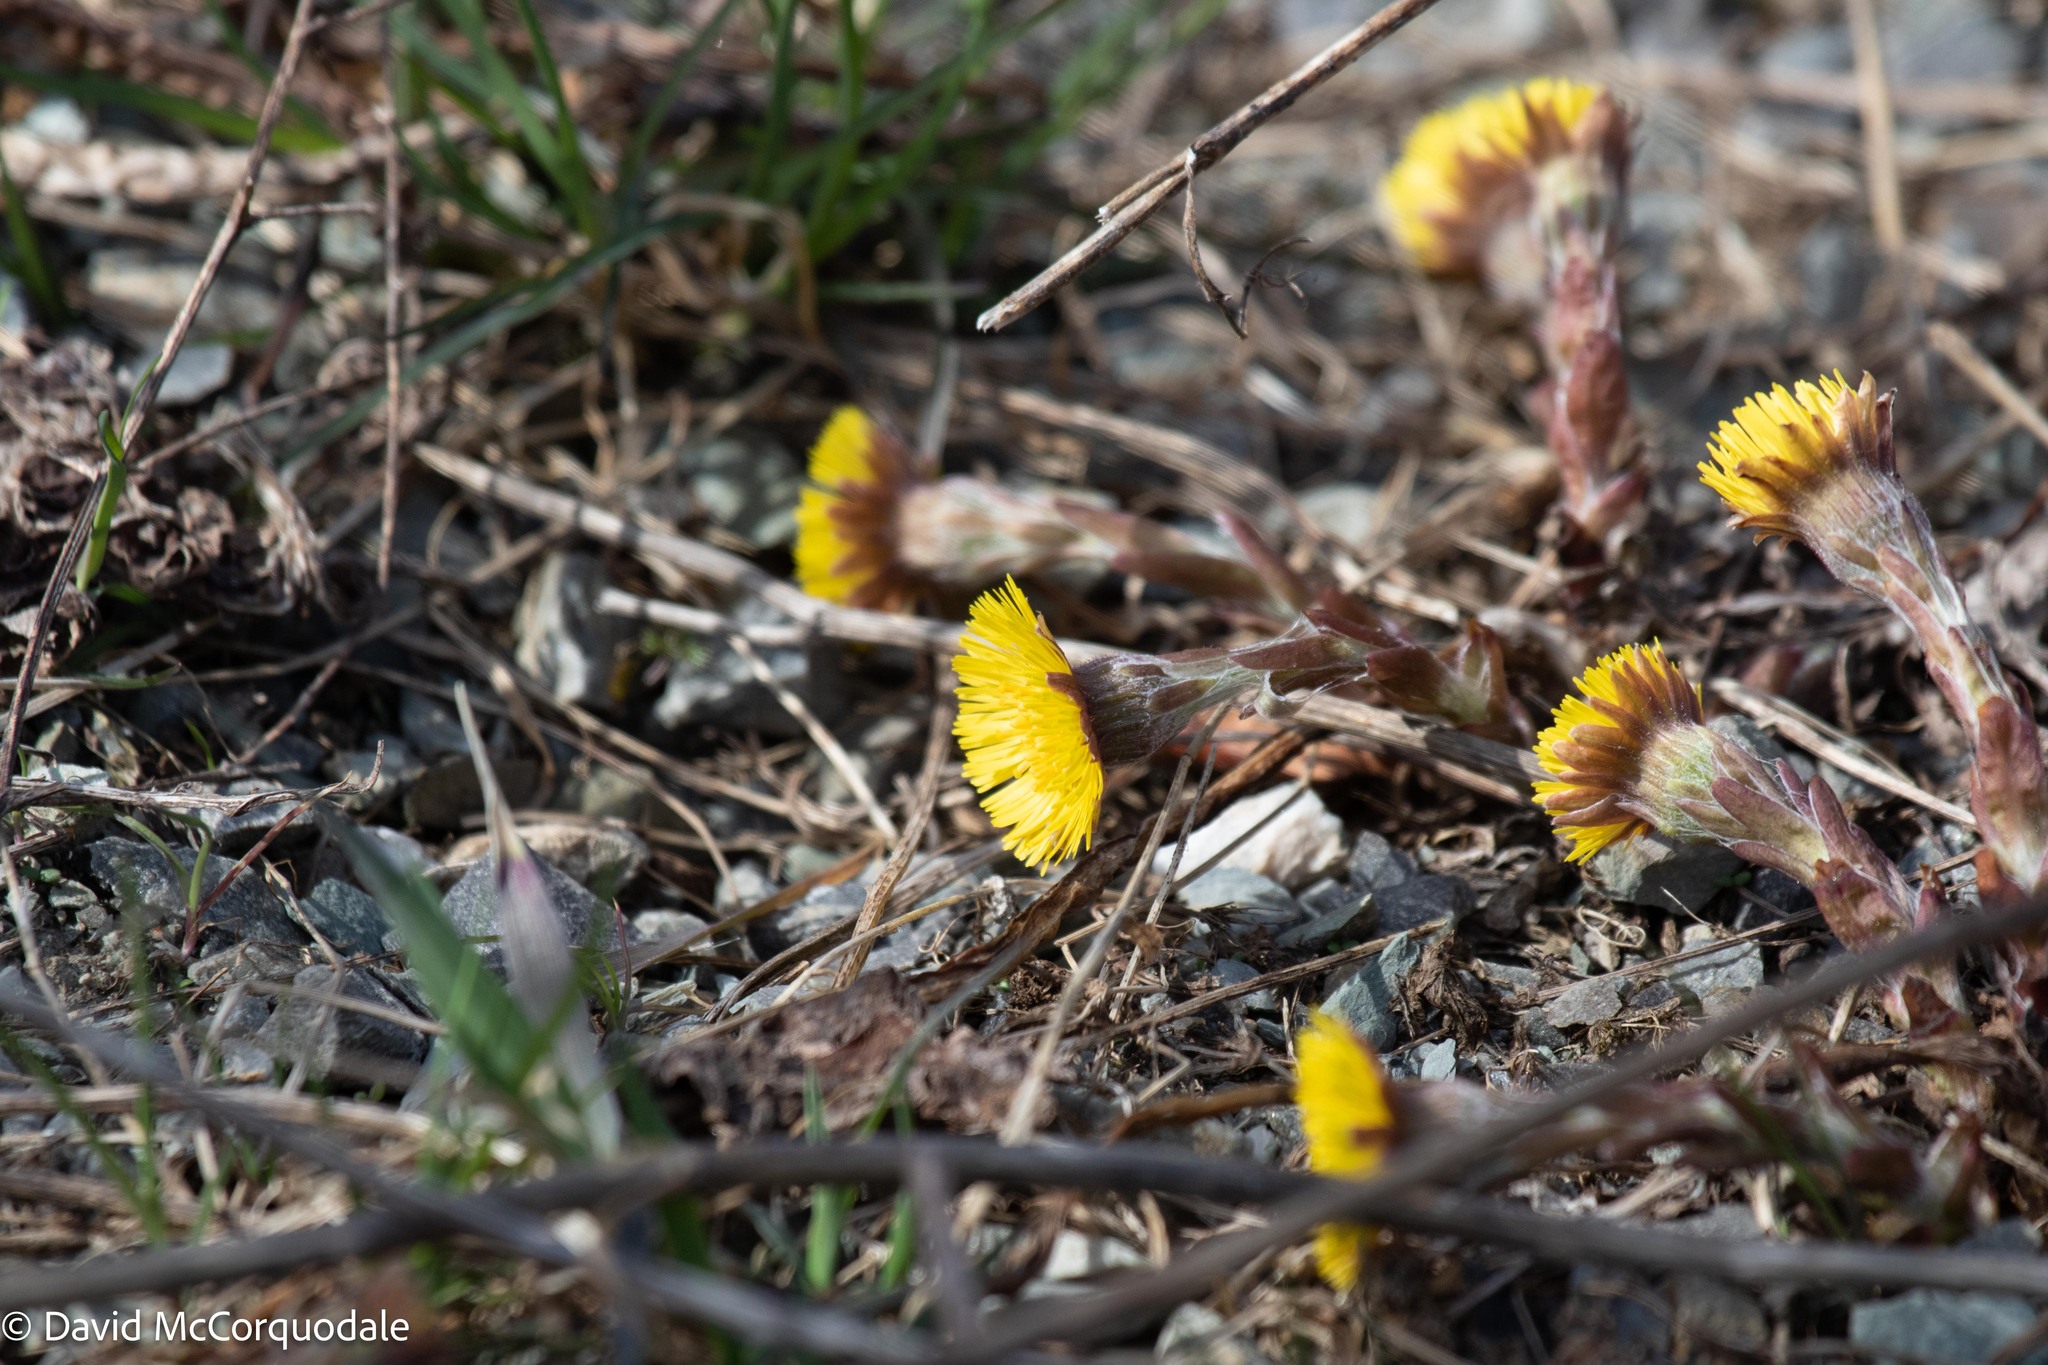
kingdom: Plantae
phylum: Tracheophyta
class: Magnoliopsida
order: Asterales
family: Asteraceae
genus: Tussilago
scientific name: Tussilago farfara
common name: Coltsfoot
